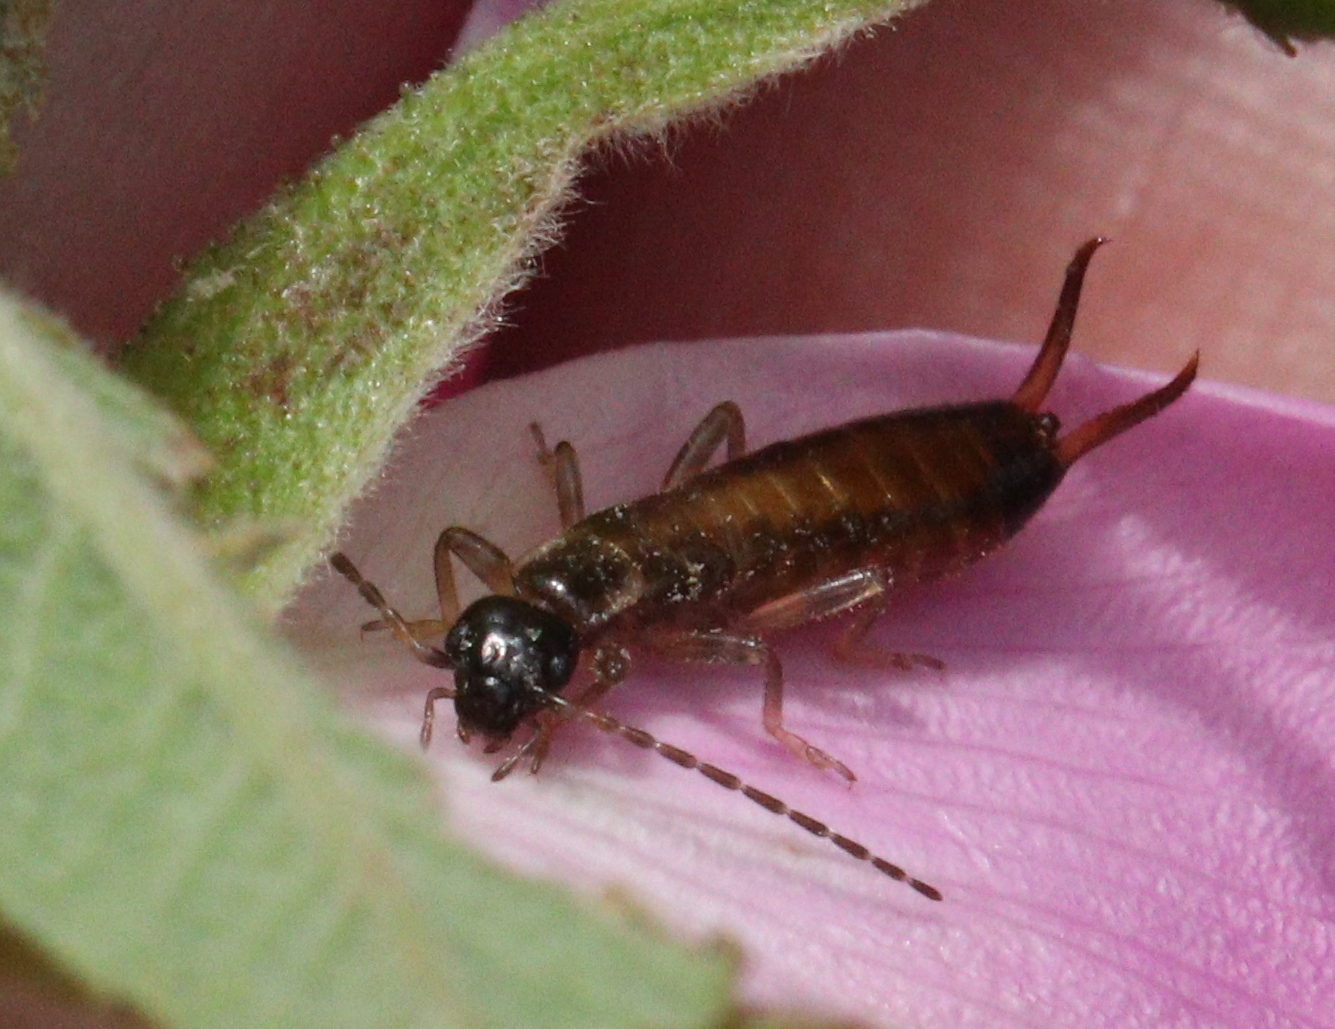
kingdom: Animalia
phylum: Arthropoda
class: Insecta
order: Dermaptera
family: Forficulidae
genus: Apterygida
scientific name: Apterygida albipennis
